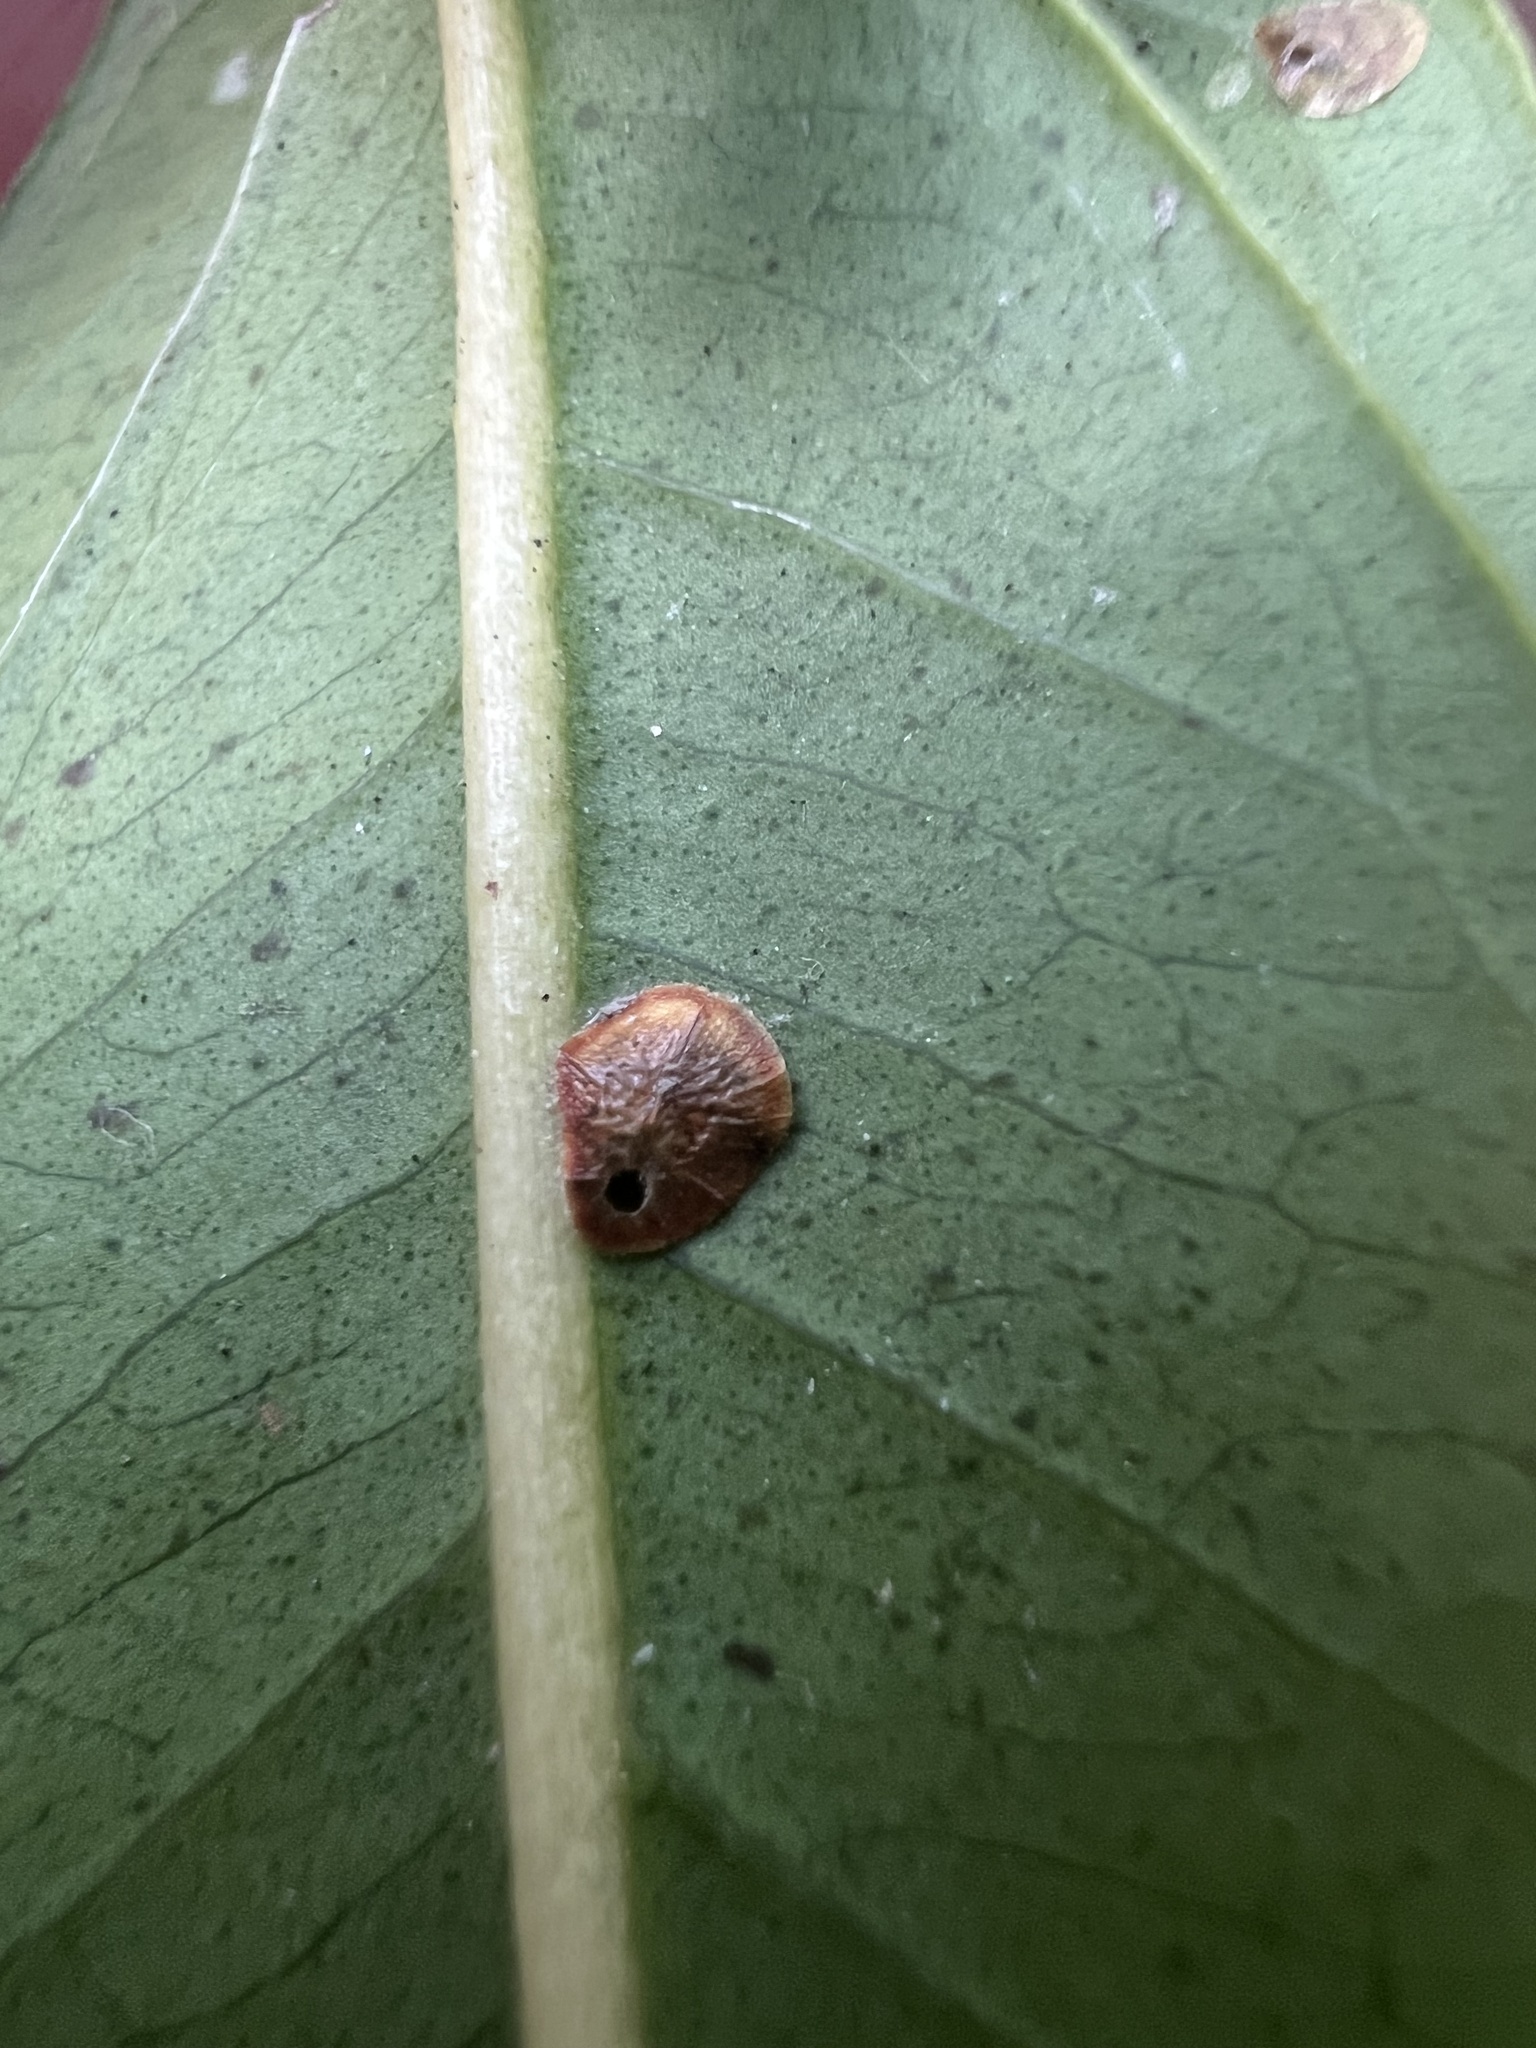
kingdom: Animalia
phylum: Arthropoda
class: Insecta
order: Hemiptera
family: Coccidae
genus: Protopulvinaria
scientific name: Protopulvinaria pyriformis
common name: Pyriform scale
